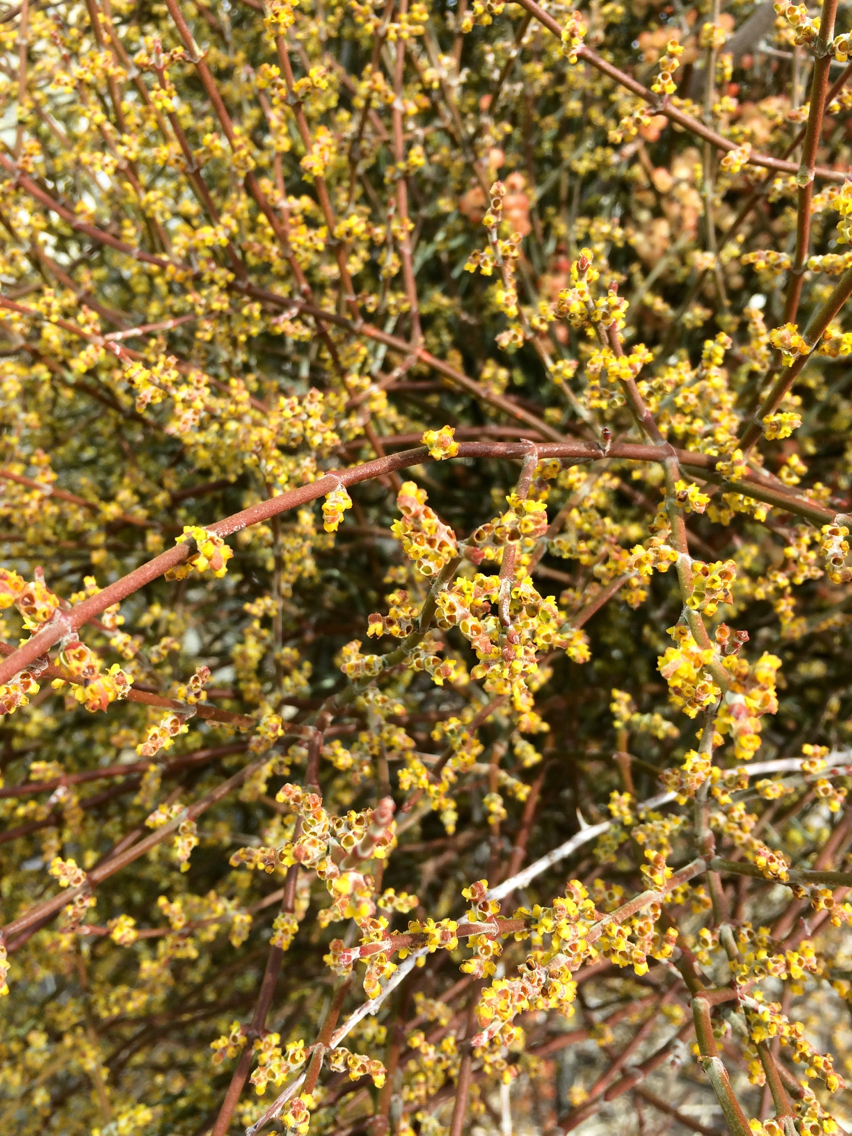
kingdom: Plantae
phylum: Tracheophyta
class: Magnoliopsida
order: Santalales
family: Viscaceae
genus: Phoradendron
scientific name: Phoradendron californicum
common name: Acacia mistletoe
